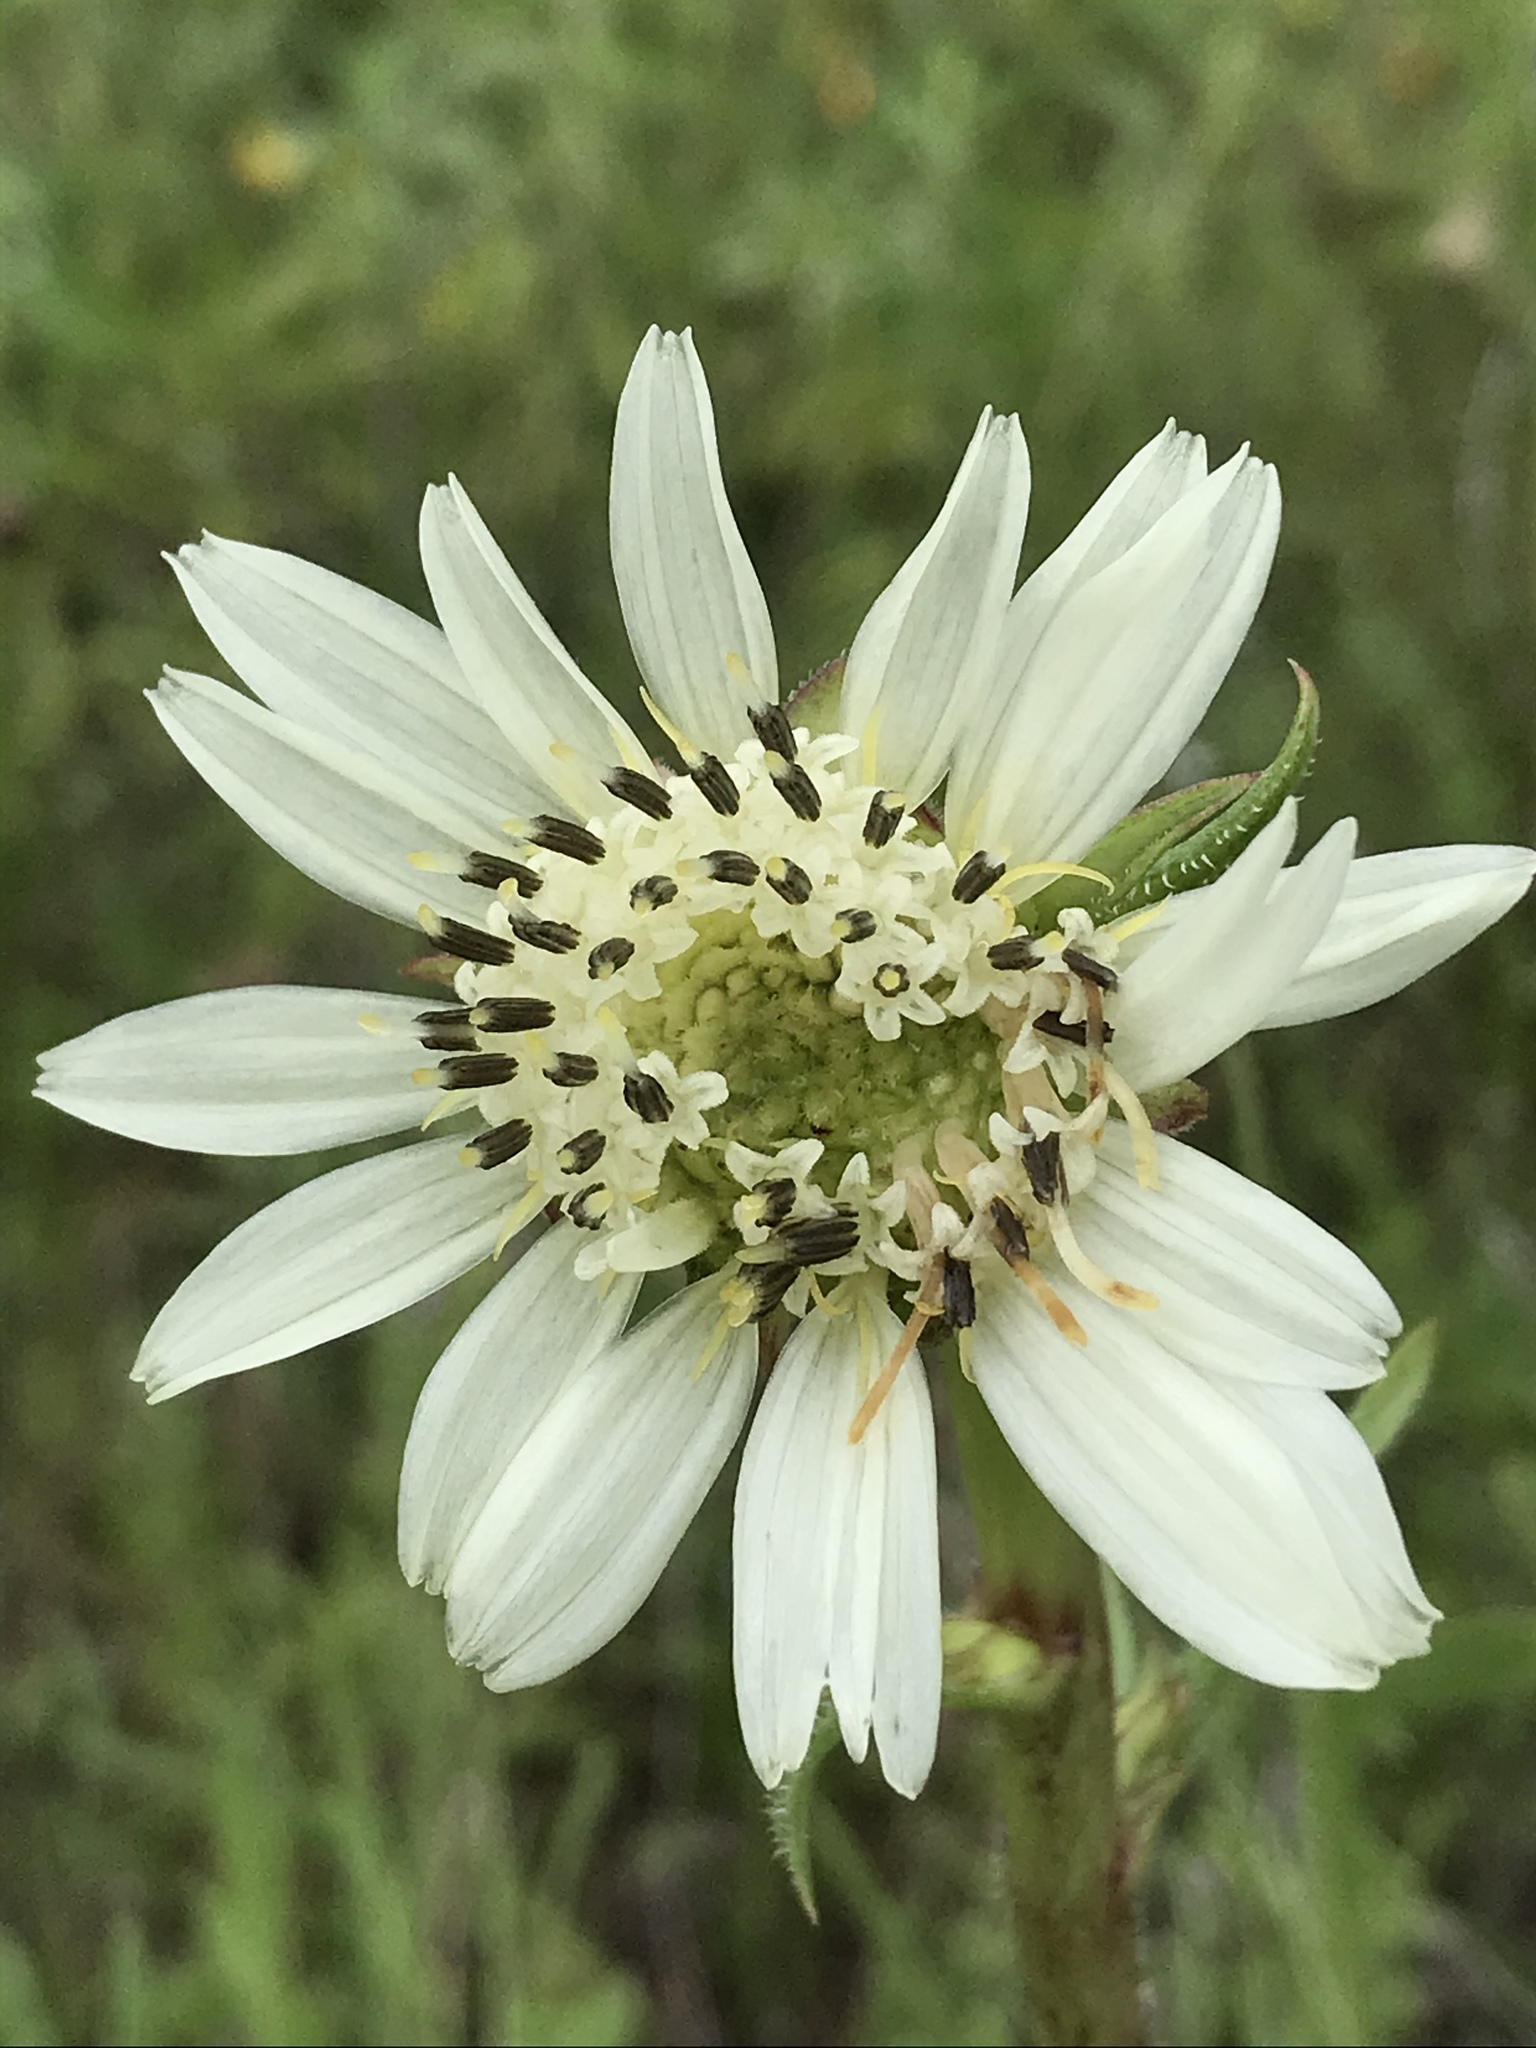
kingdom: Plantae
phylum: Tracheophyta
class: Magnoliopsida
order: Asterales
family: Asteraceae
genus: Silphium
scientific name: Silphium albiflorum
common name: White rosinweed
